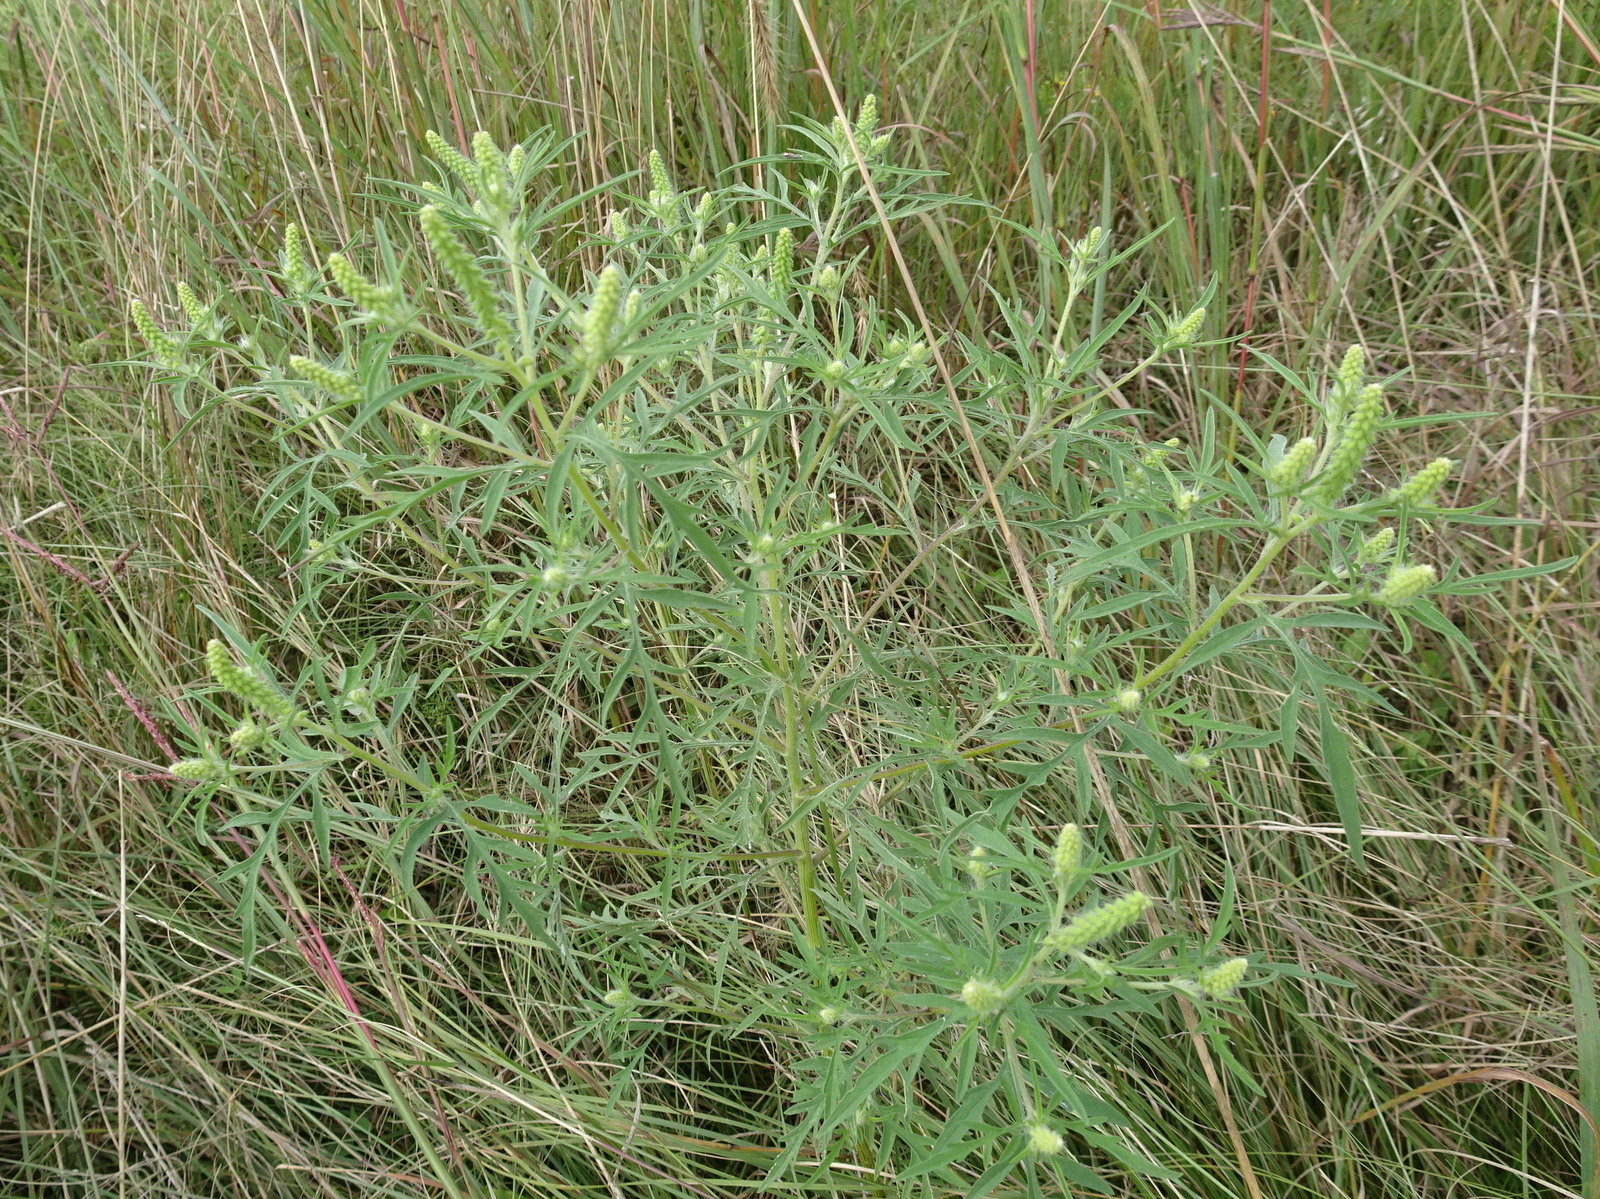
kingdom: Plantae
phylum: Tracheophyta
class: Magnoliopsida
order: Asterales
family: Asteraceae
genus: Ambrosia
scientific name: Ambrosia psilostachya
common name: Perennial ragweed
